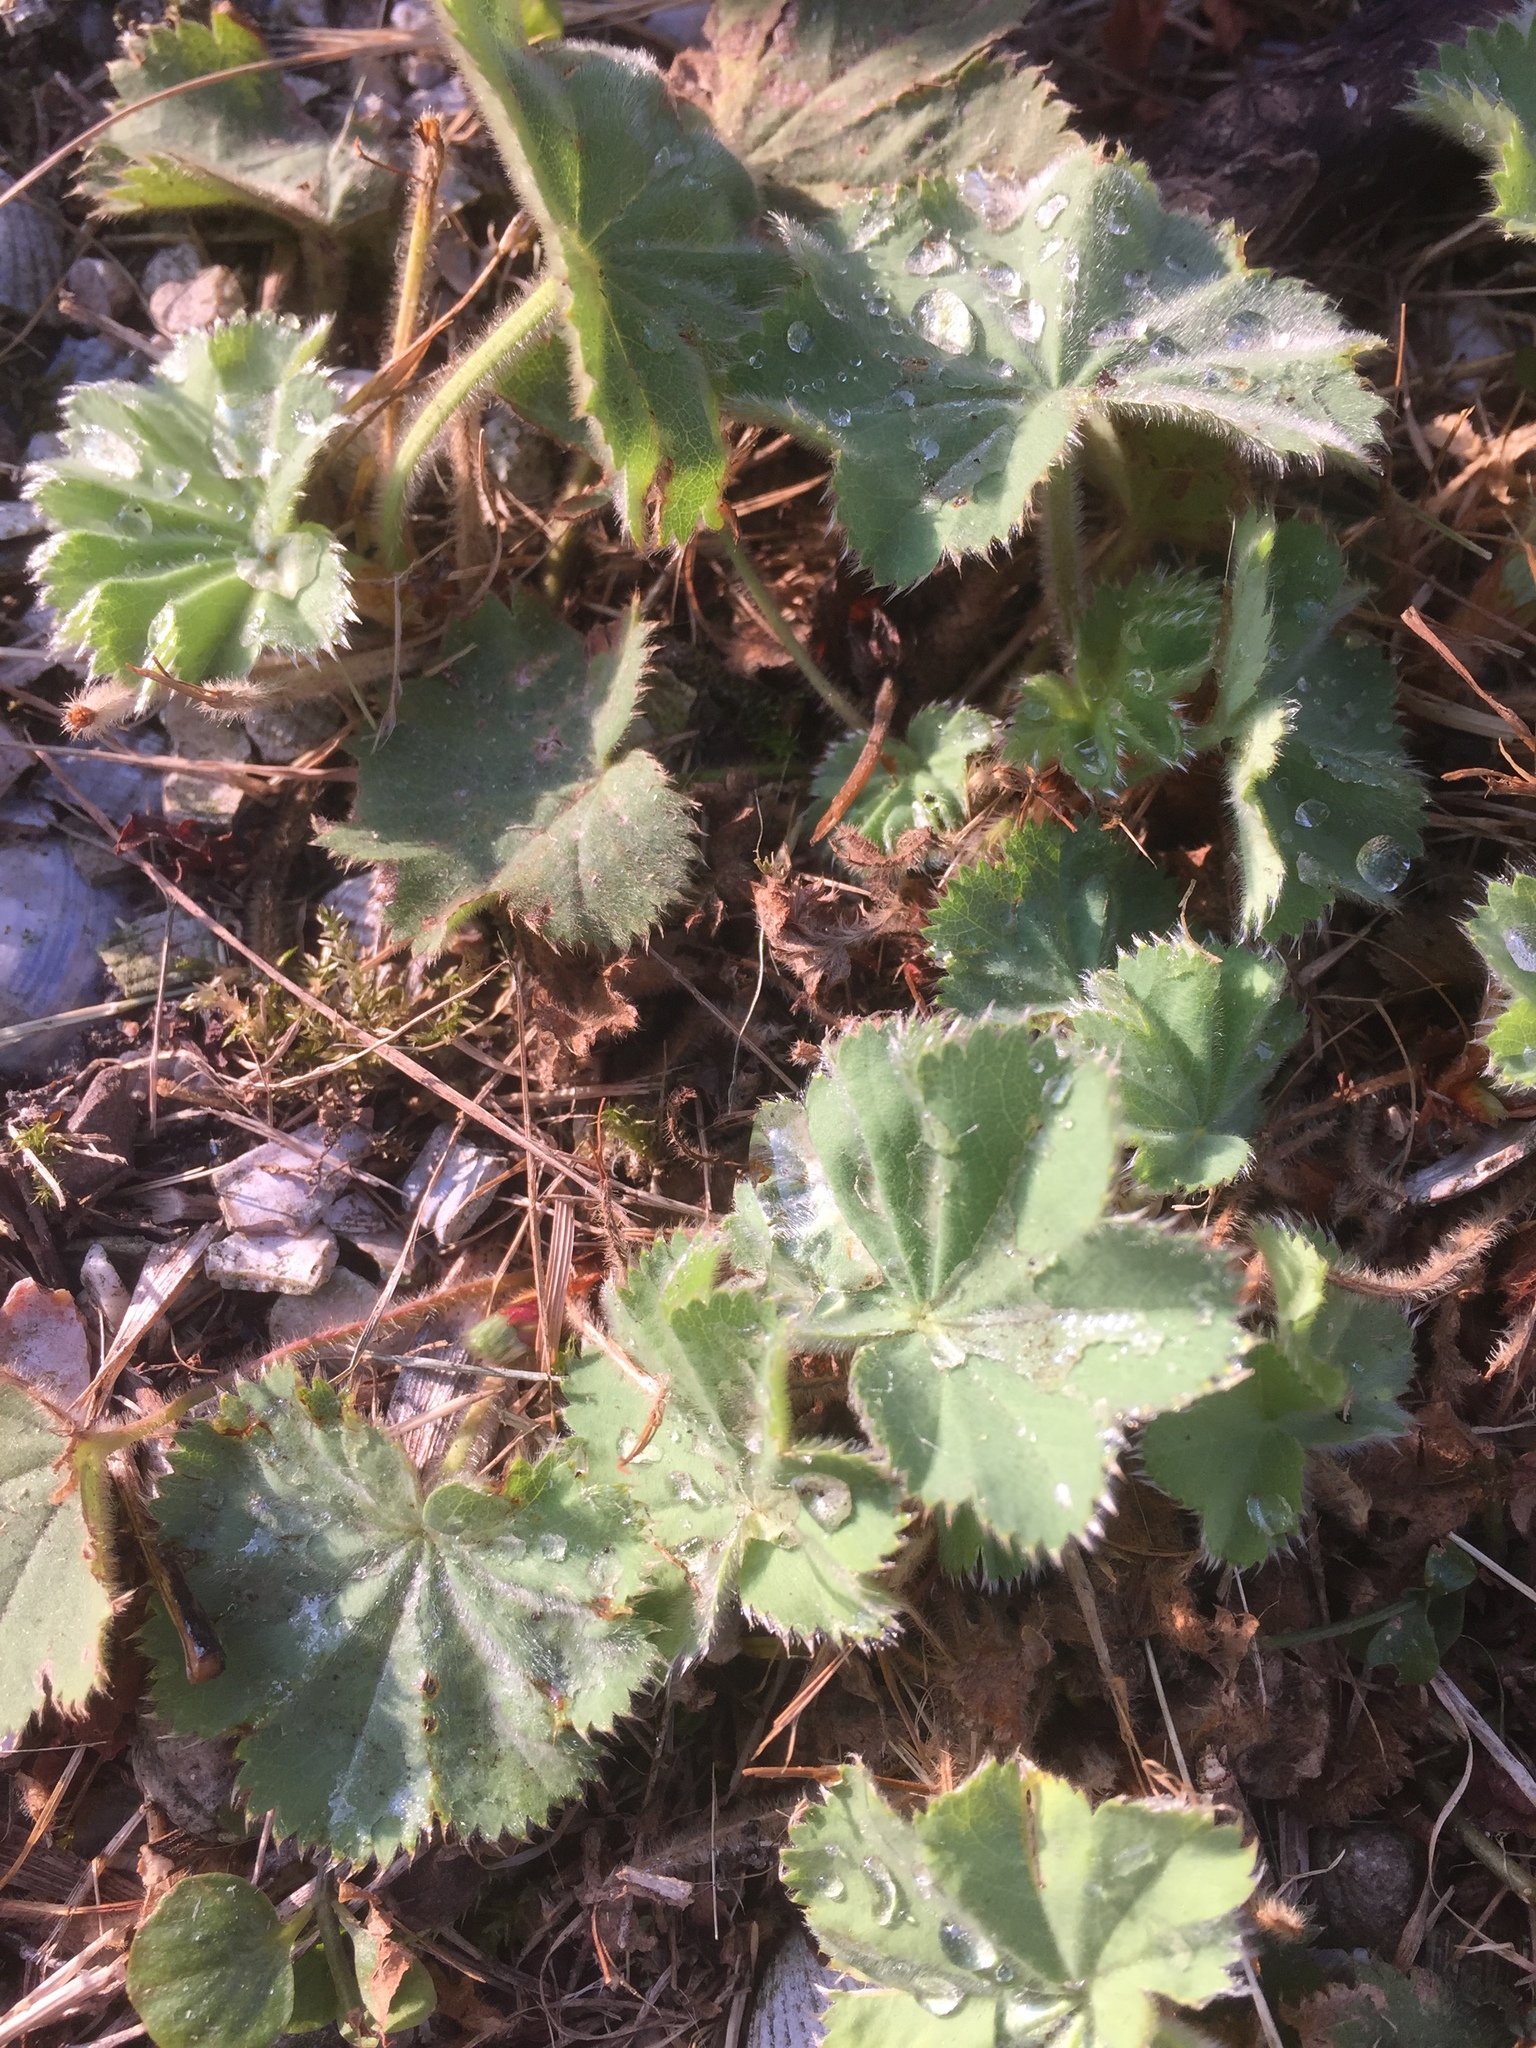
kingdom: Plantae
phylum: Tracheophyta
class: Magnoliopsida
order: Rosales
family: Rosaceae
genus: Alchemilla
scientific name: Alchemilla mollis
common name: Lady's-mantle
